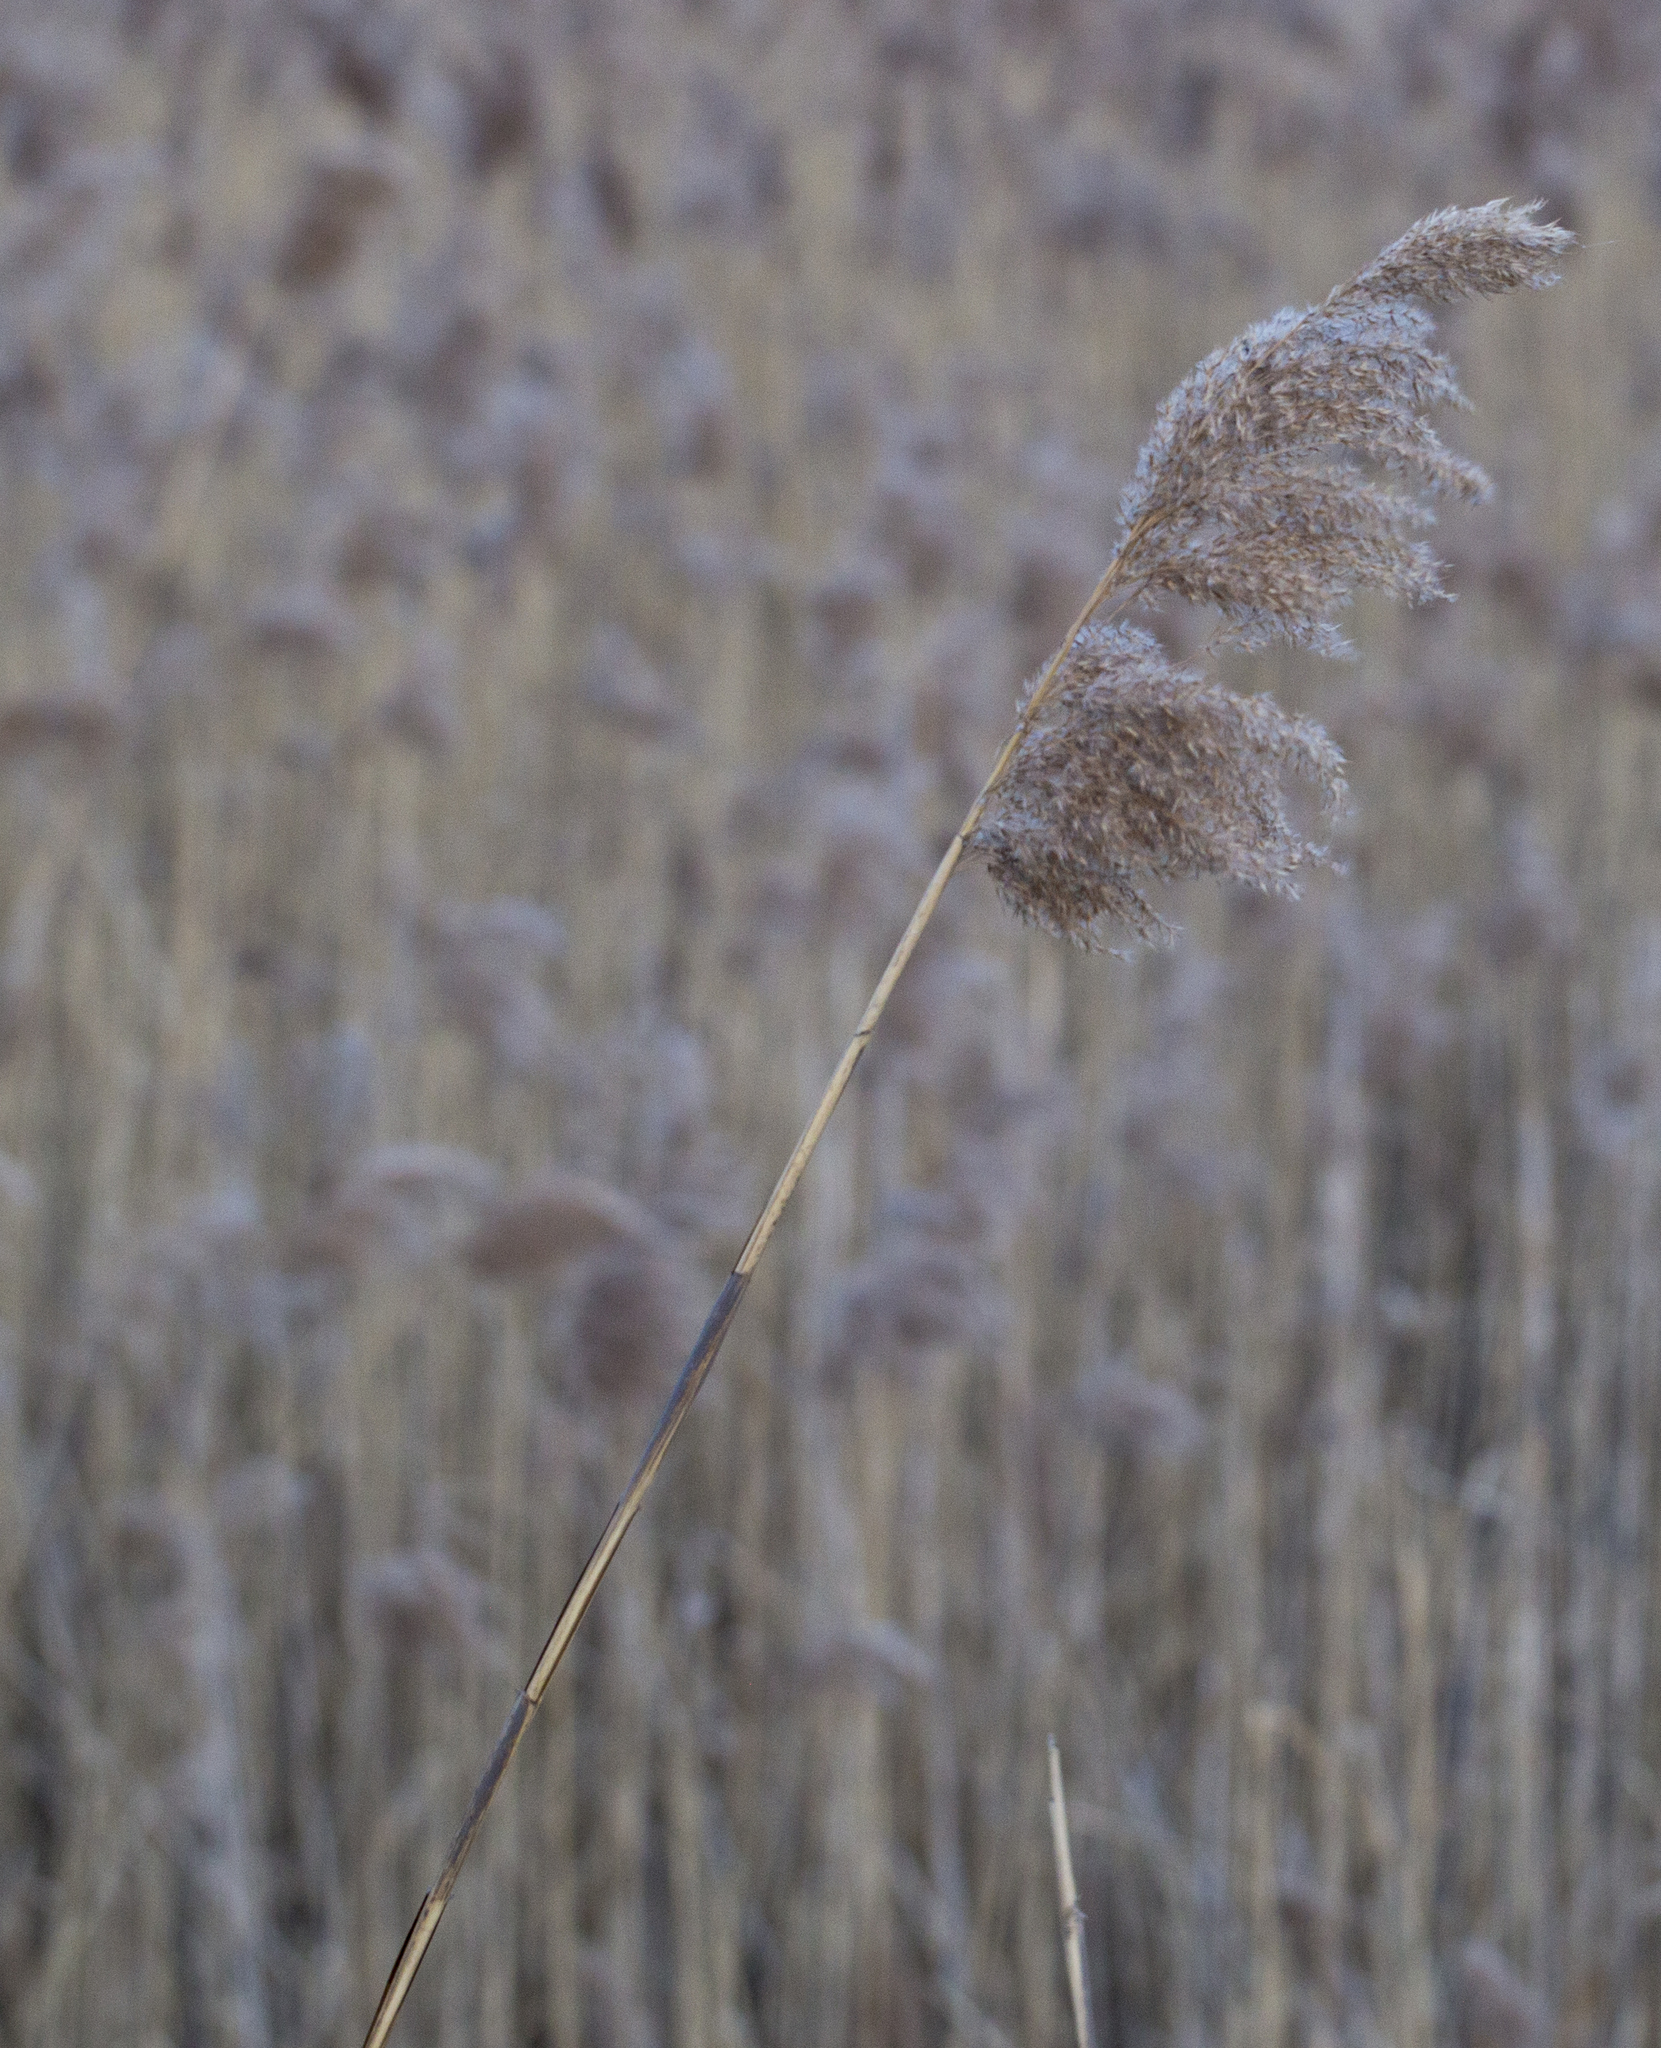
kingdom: Plantae
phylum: Tracheophyta
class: Liliopsida
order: Poales
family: Poaceae
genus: Phragmites
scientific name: Phragmites australis
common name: Common reed
